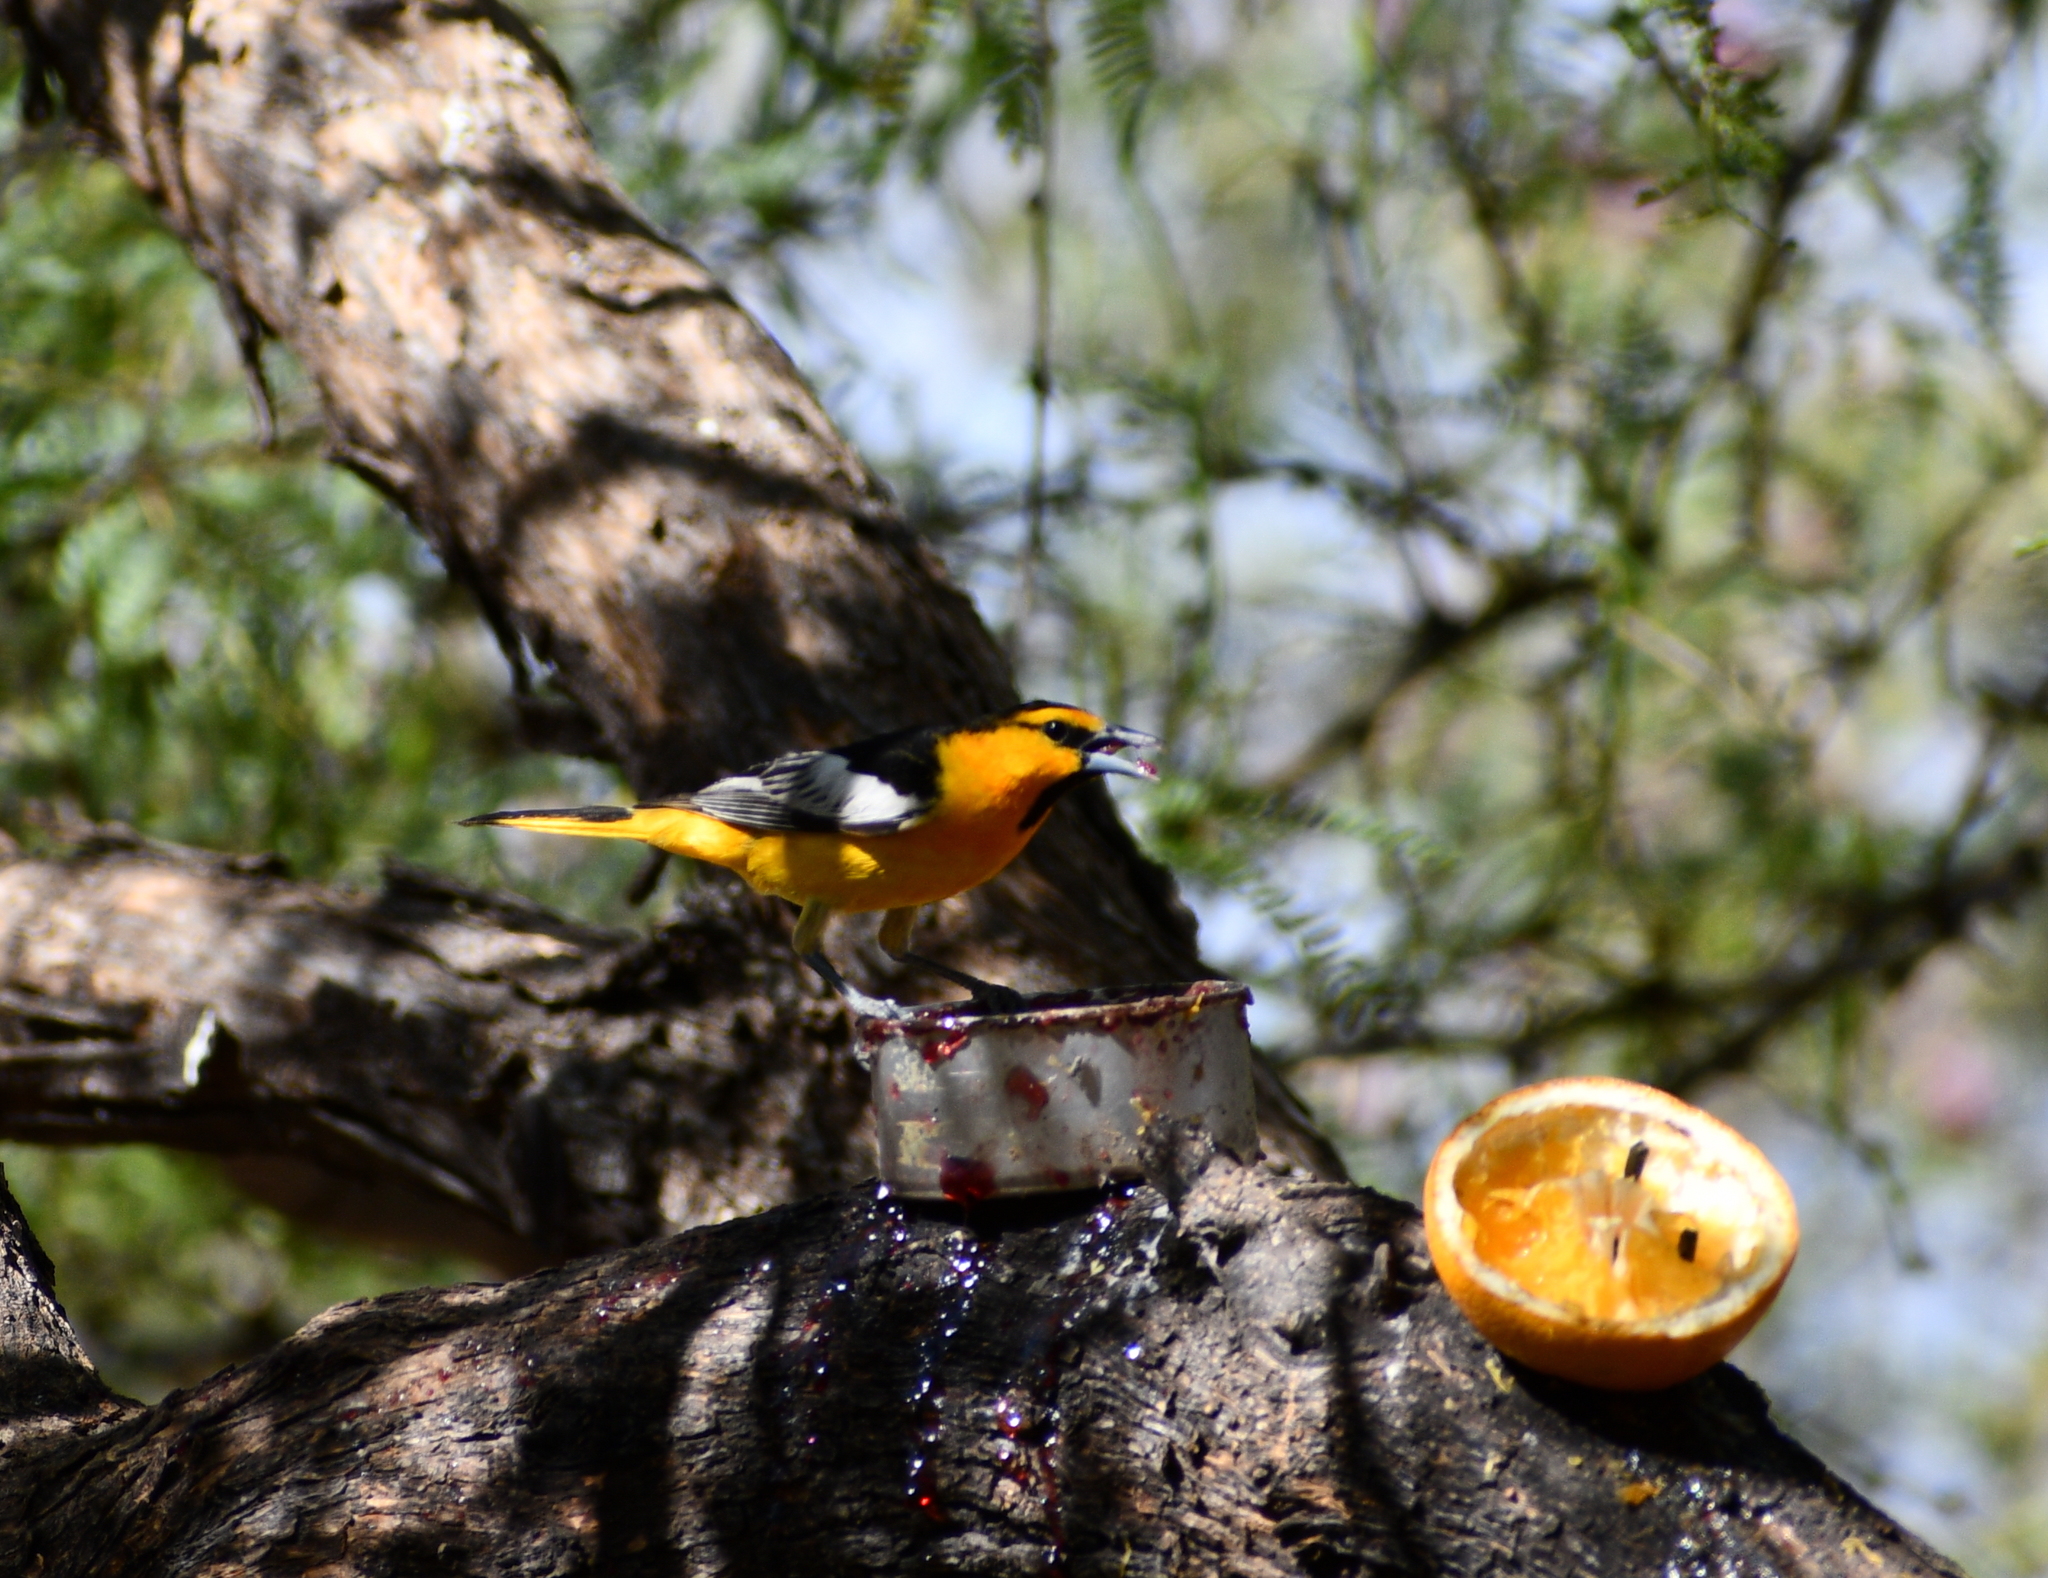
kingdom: Animalia
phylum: Chordata
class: Aves
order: Passeriformes
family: Icteridae
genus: Icterus
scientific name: Icterus bullockii
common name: Bullock's oriole
